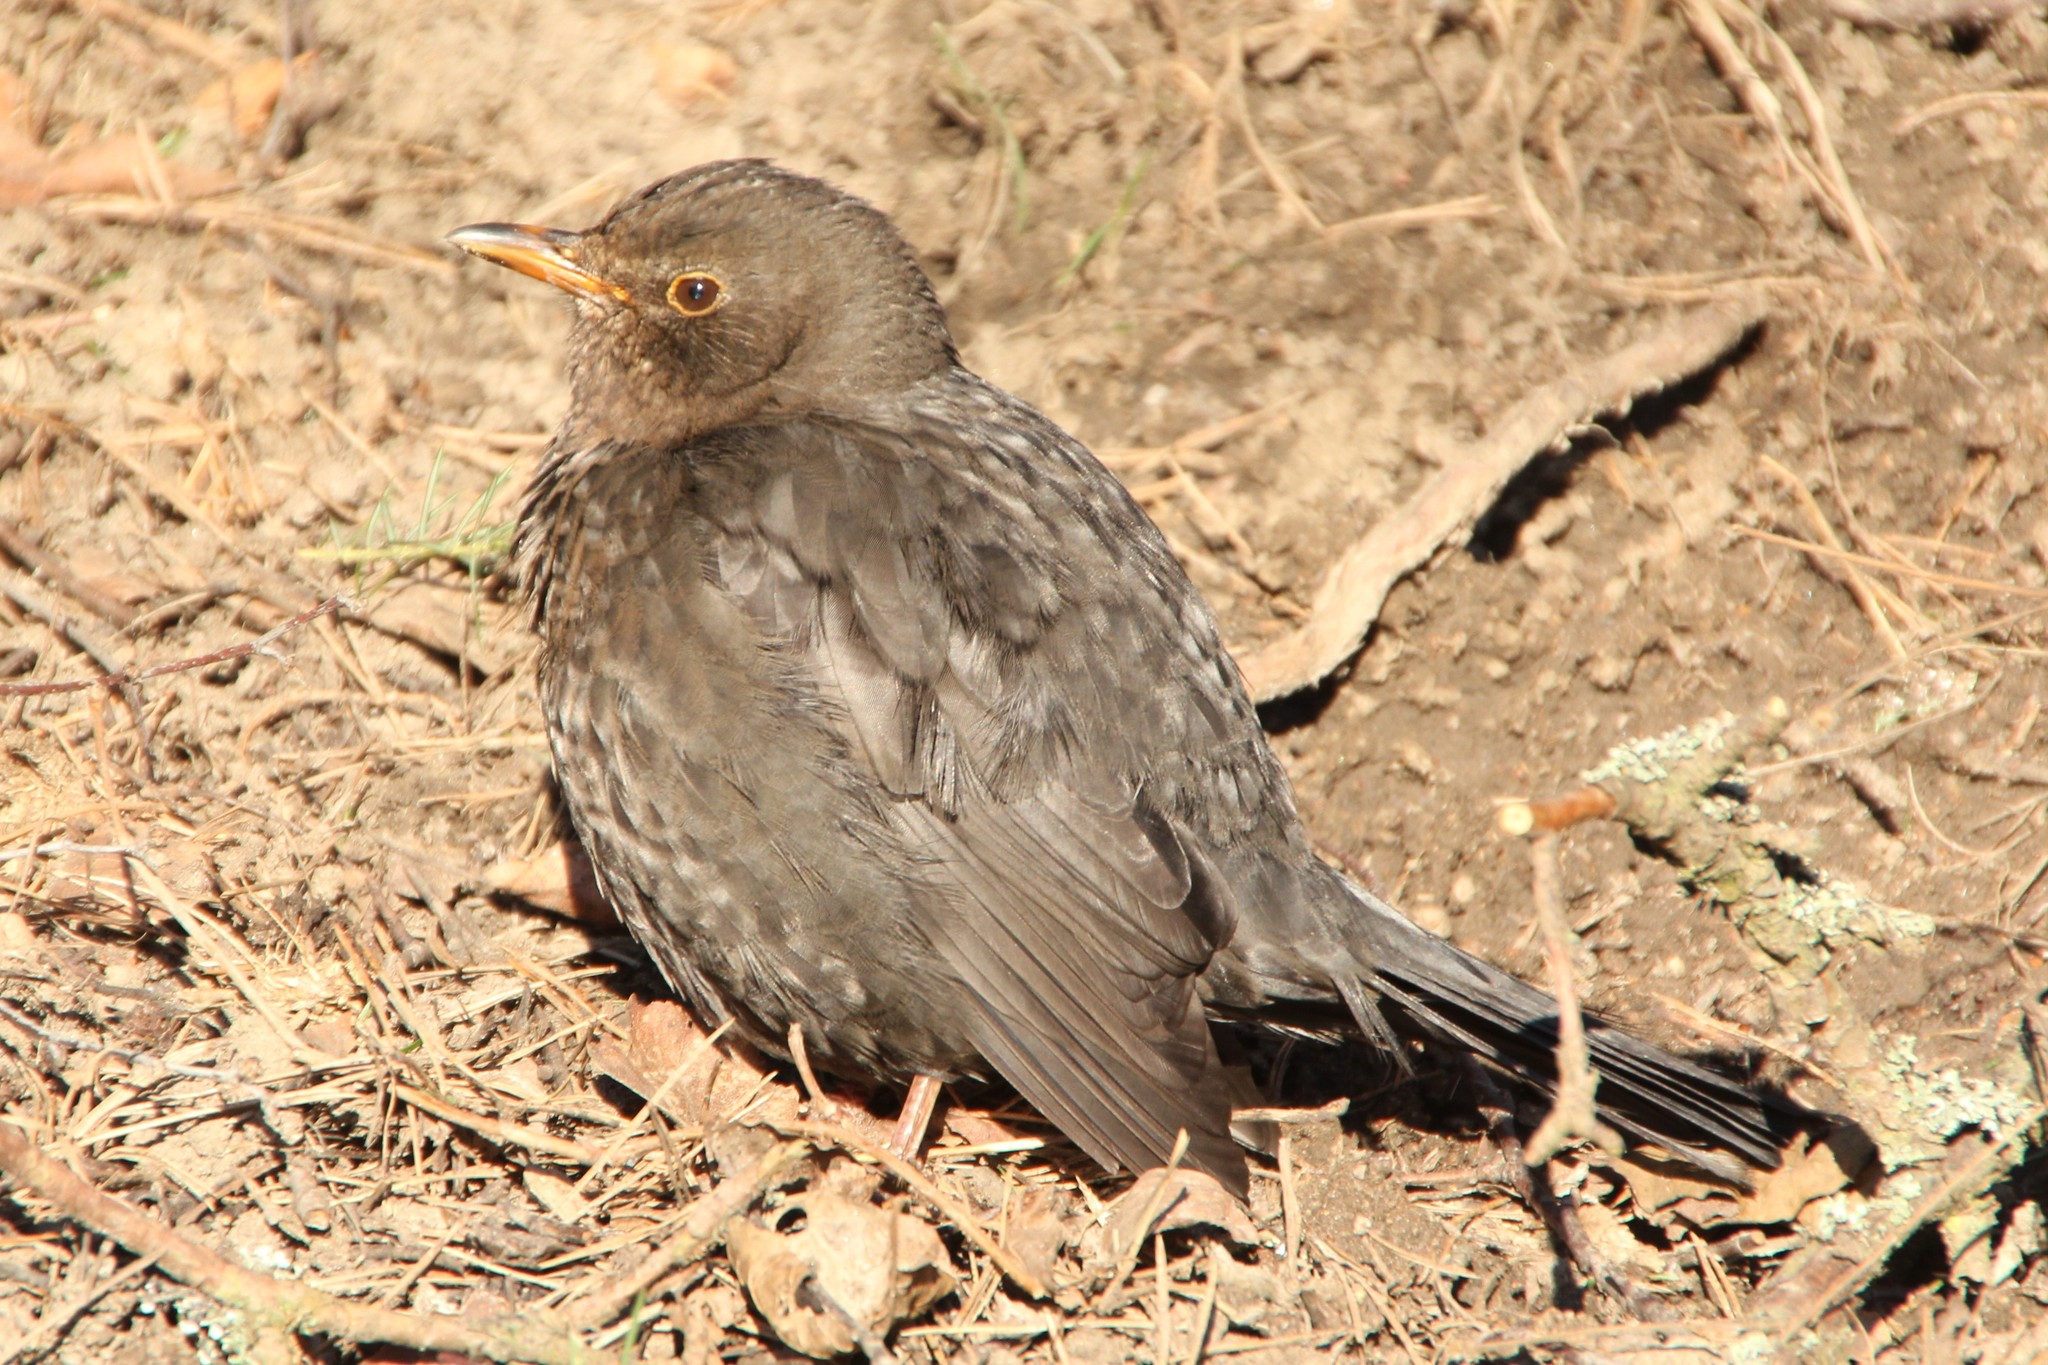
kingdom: Animalia
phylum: Chordata
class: Aves
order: Passeriformes
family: Turdidae
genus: Turdus
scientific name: Turdus merula
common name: Common blackbird
